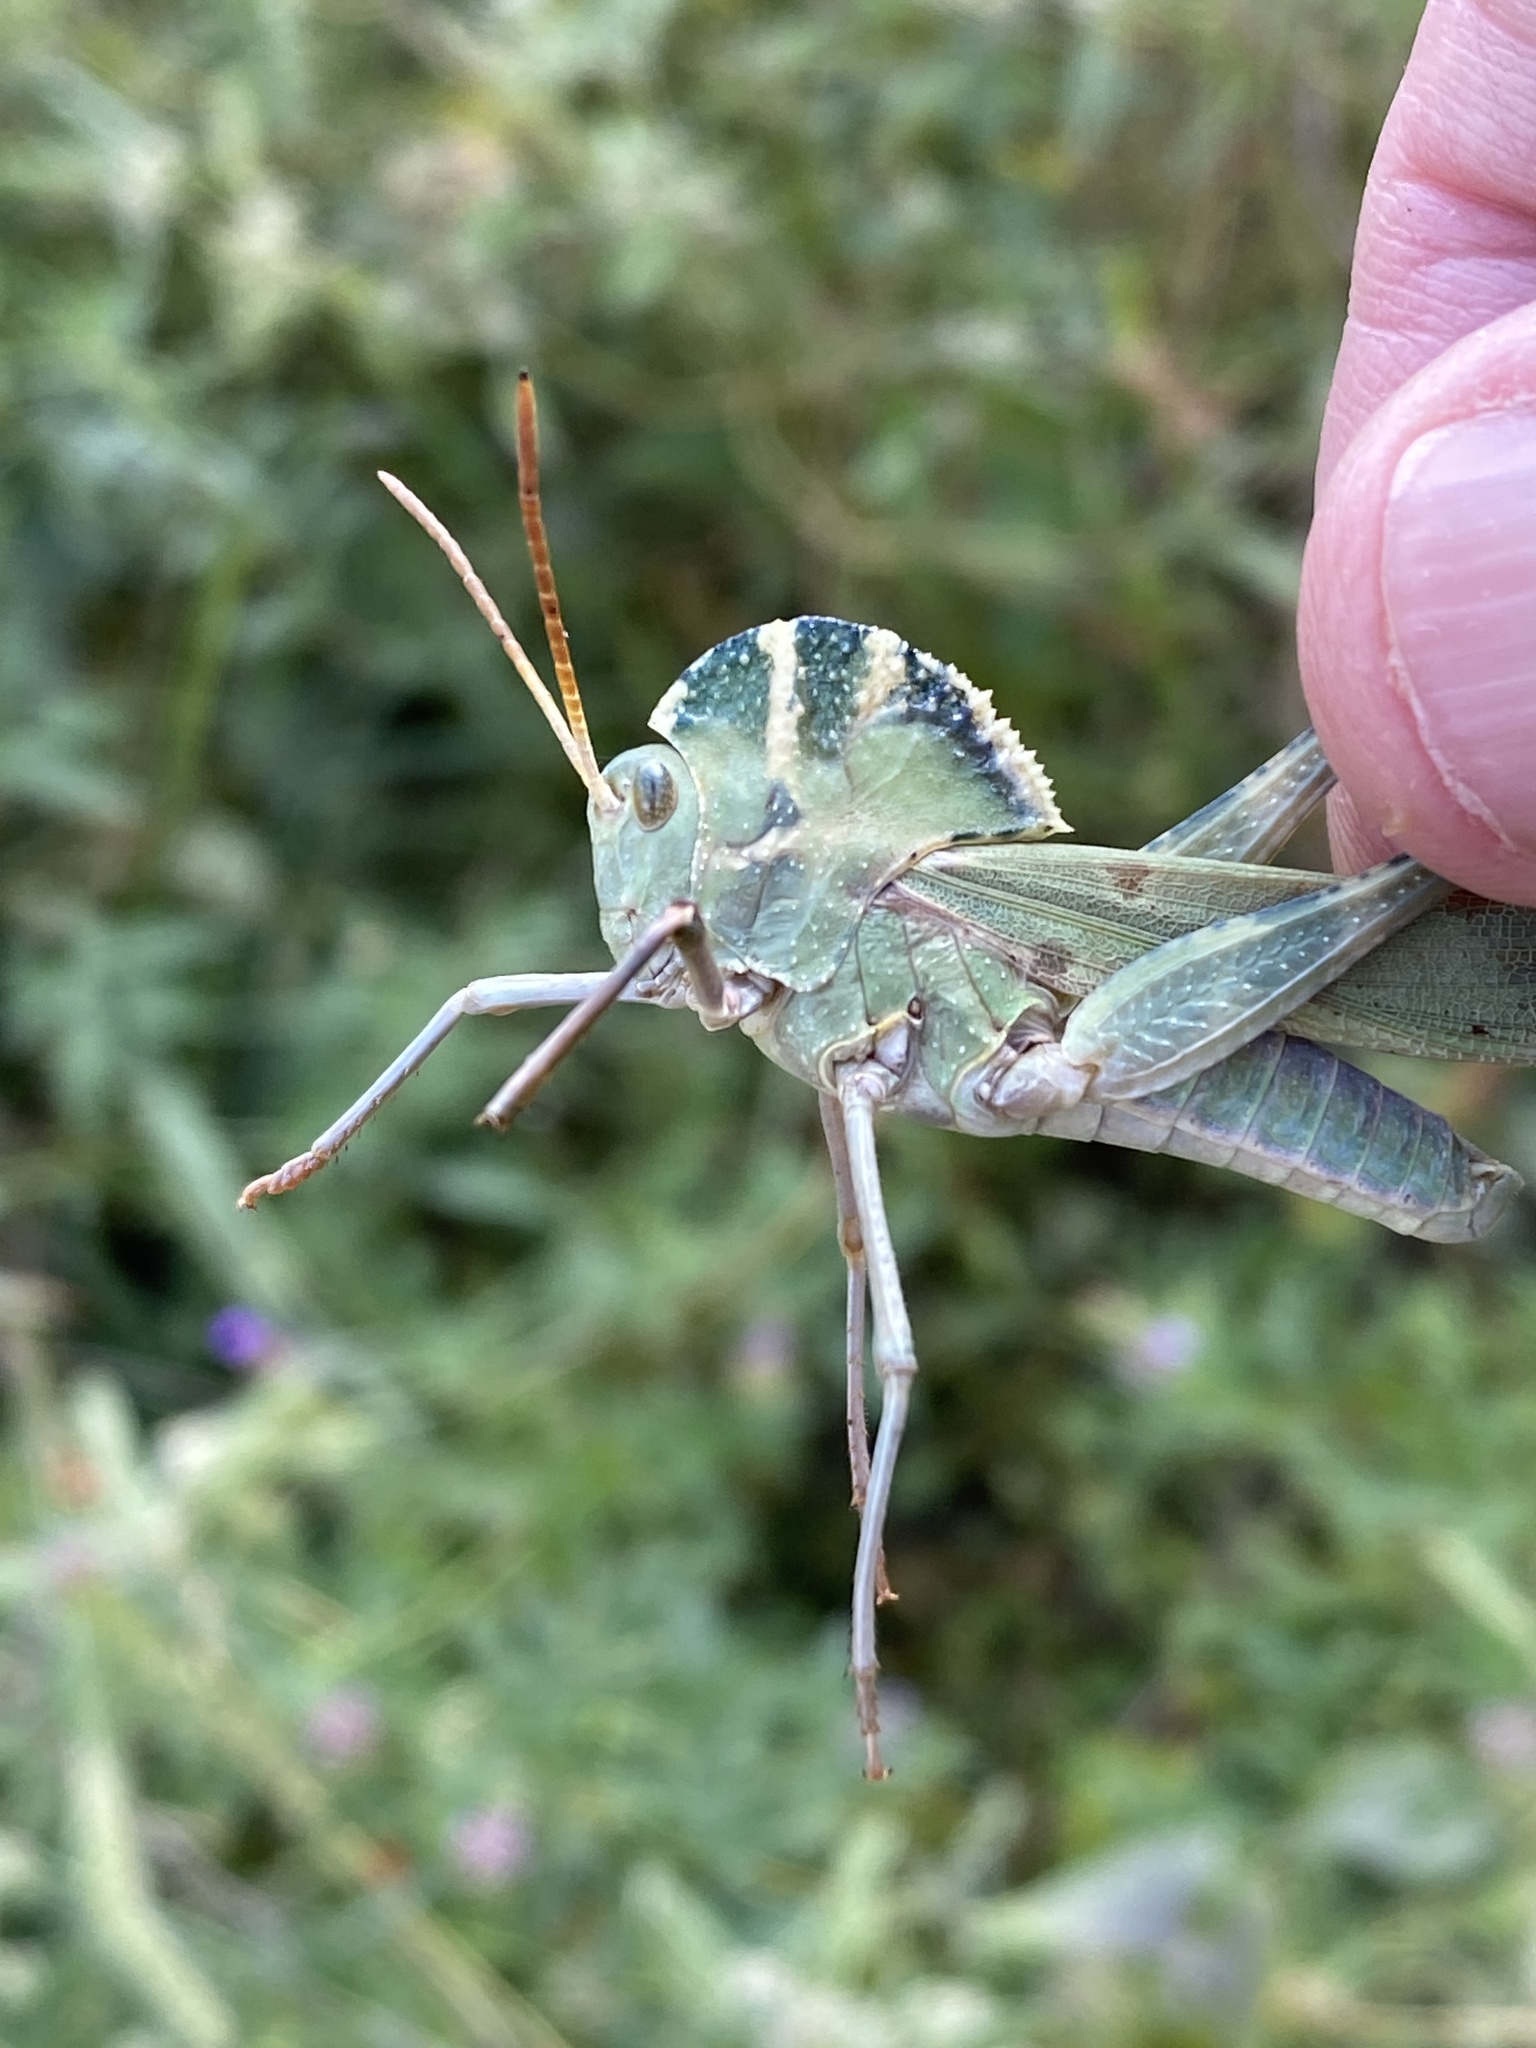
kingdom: Animalia
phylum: Arthropoda
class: Insecta
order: Orthoptera
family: Acrididae
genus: Tropidolophus
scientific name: Tropidolophus formosus
